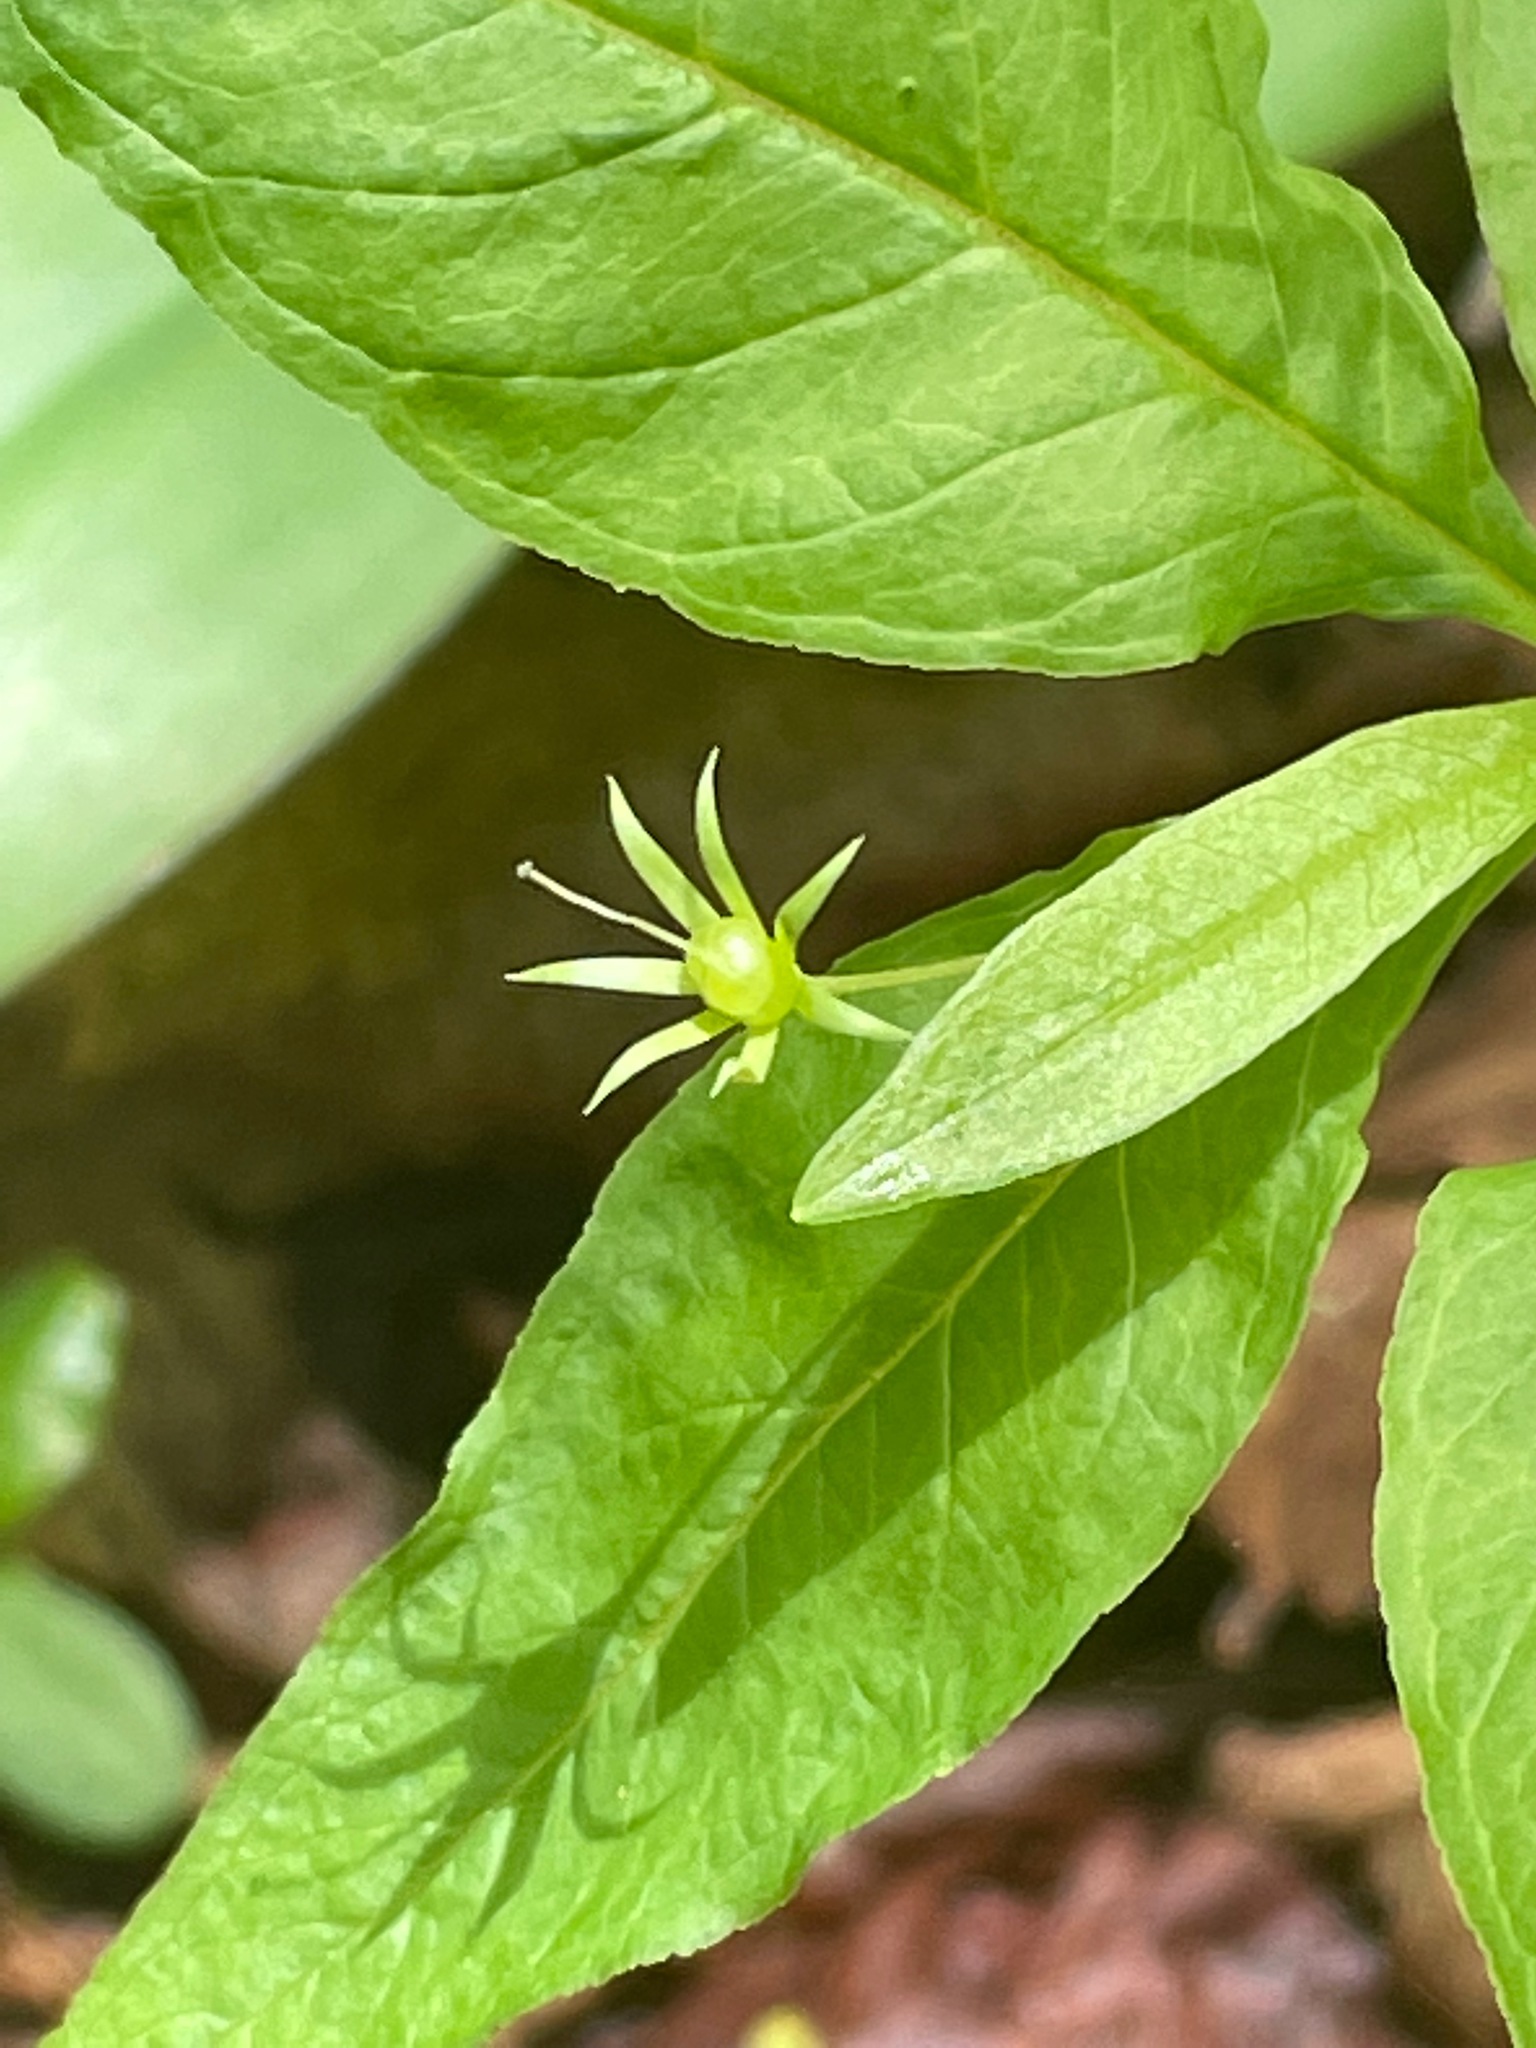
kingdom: Plantae
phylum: Tracheophyta
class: Magnoliopsida
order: Ericales
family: Primulaceae
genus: Lysimachia
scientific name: Lysimachia borealis
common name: American starflower
